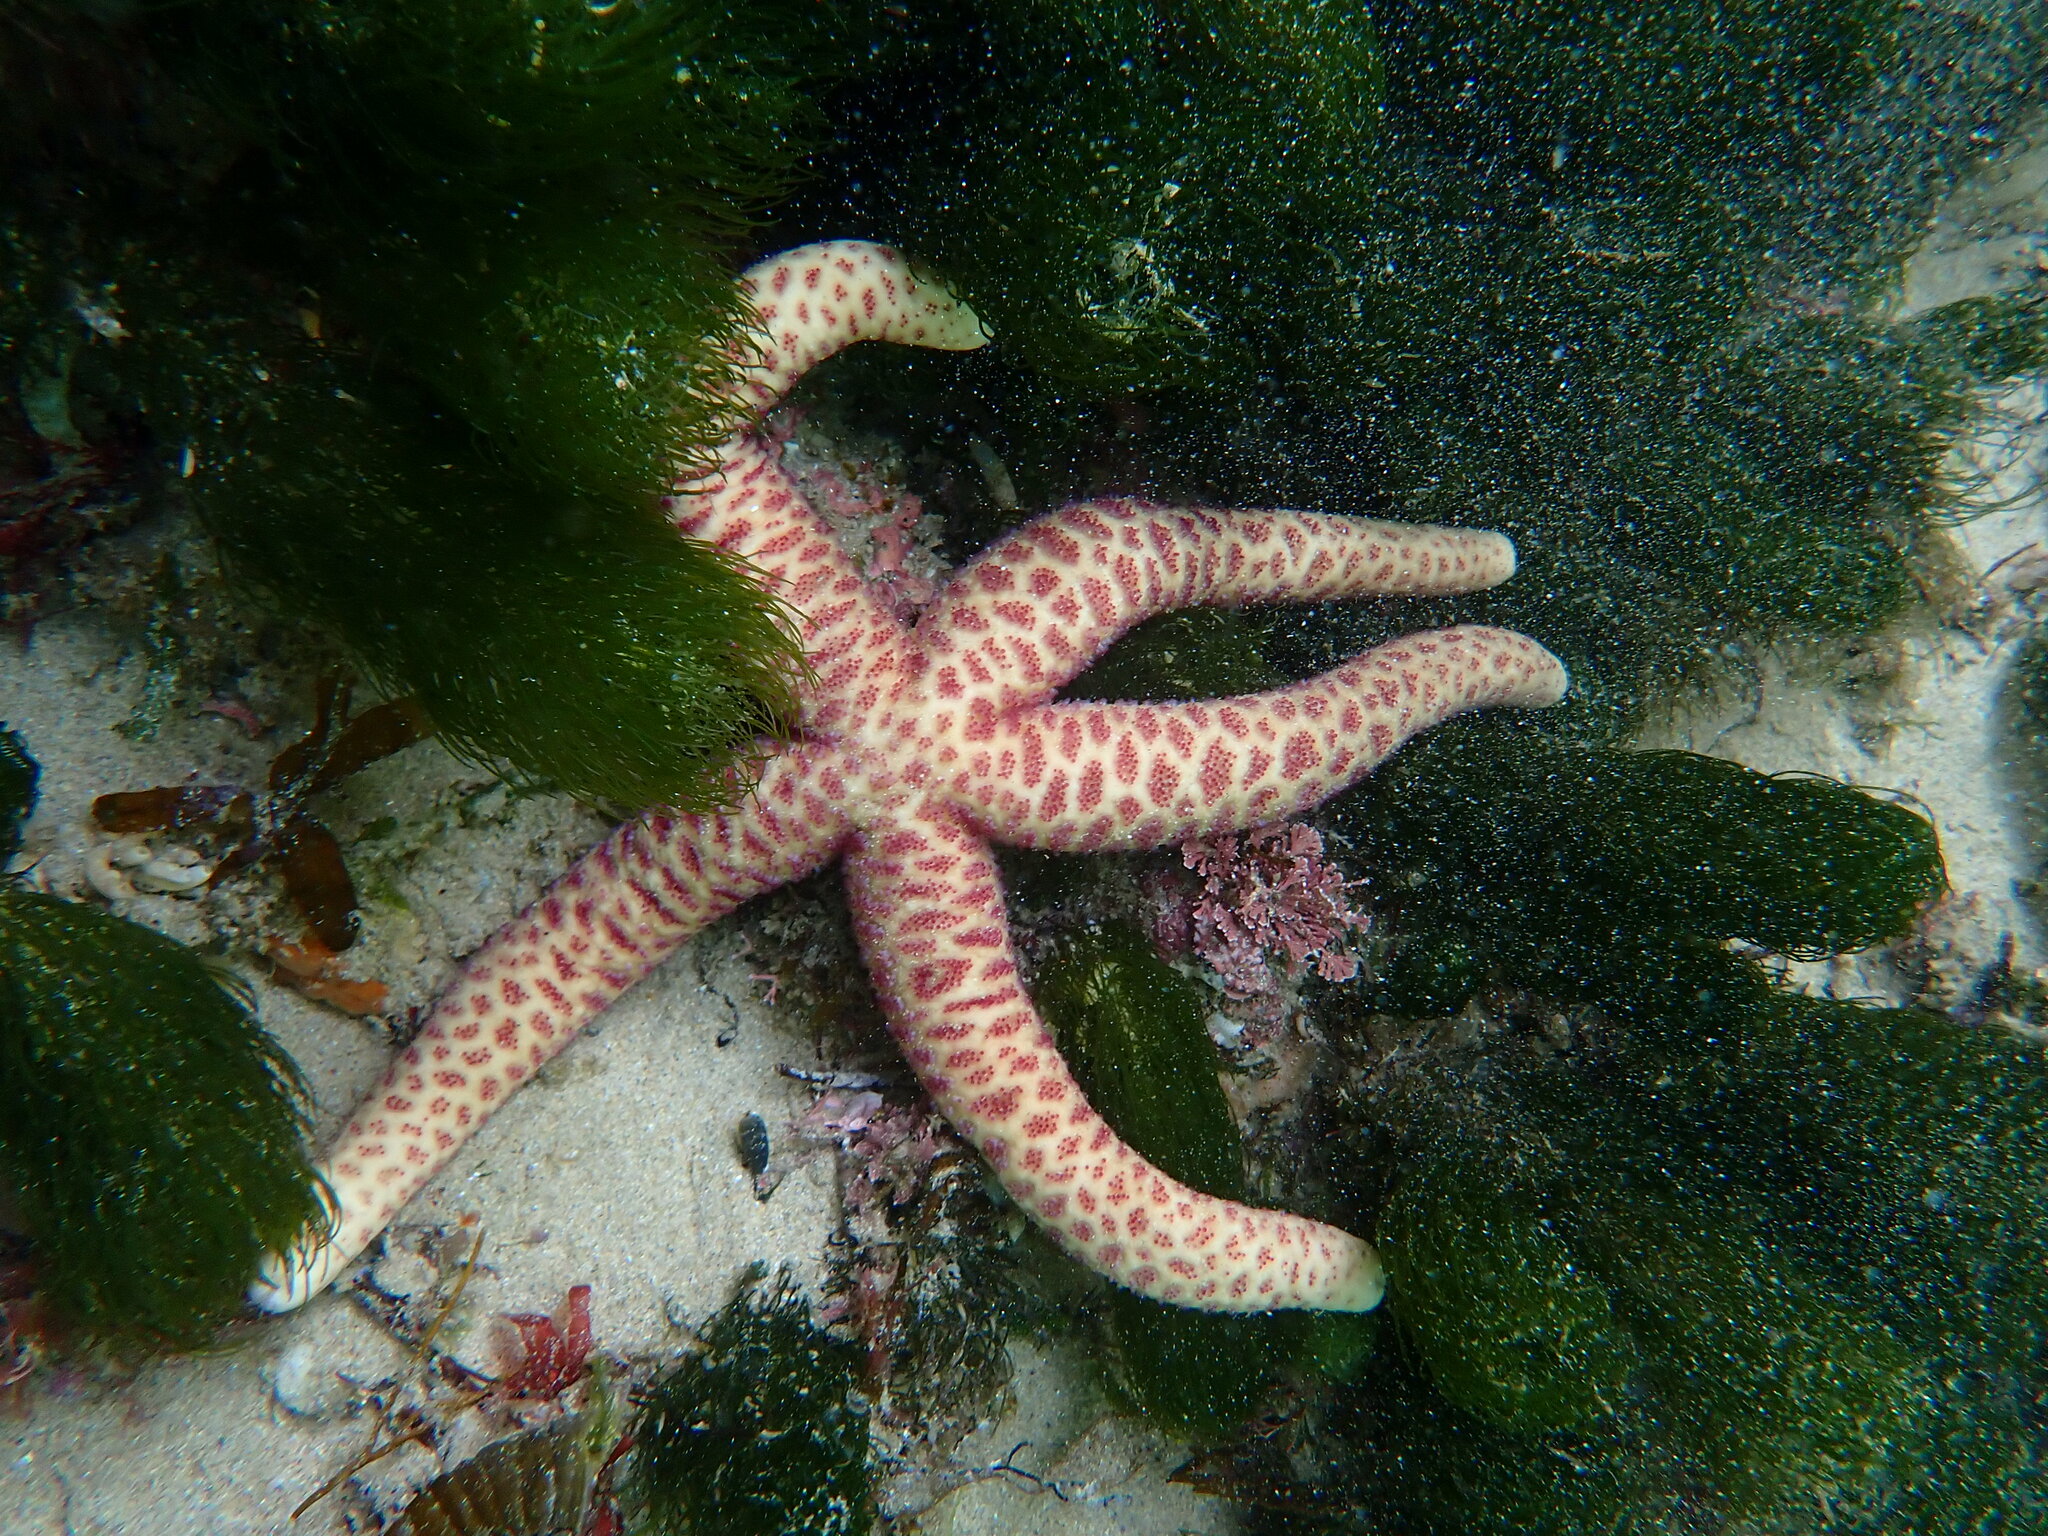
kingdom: Animalia
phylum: Echinodermata
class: Asteroidea
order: Spinulosida
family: Echinasteridae
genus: Echinaster
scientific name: Echinaster arcystatus
